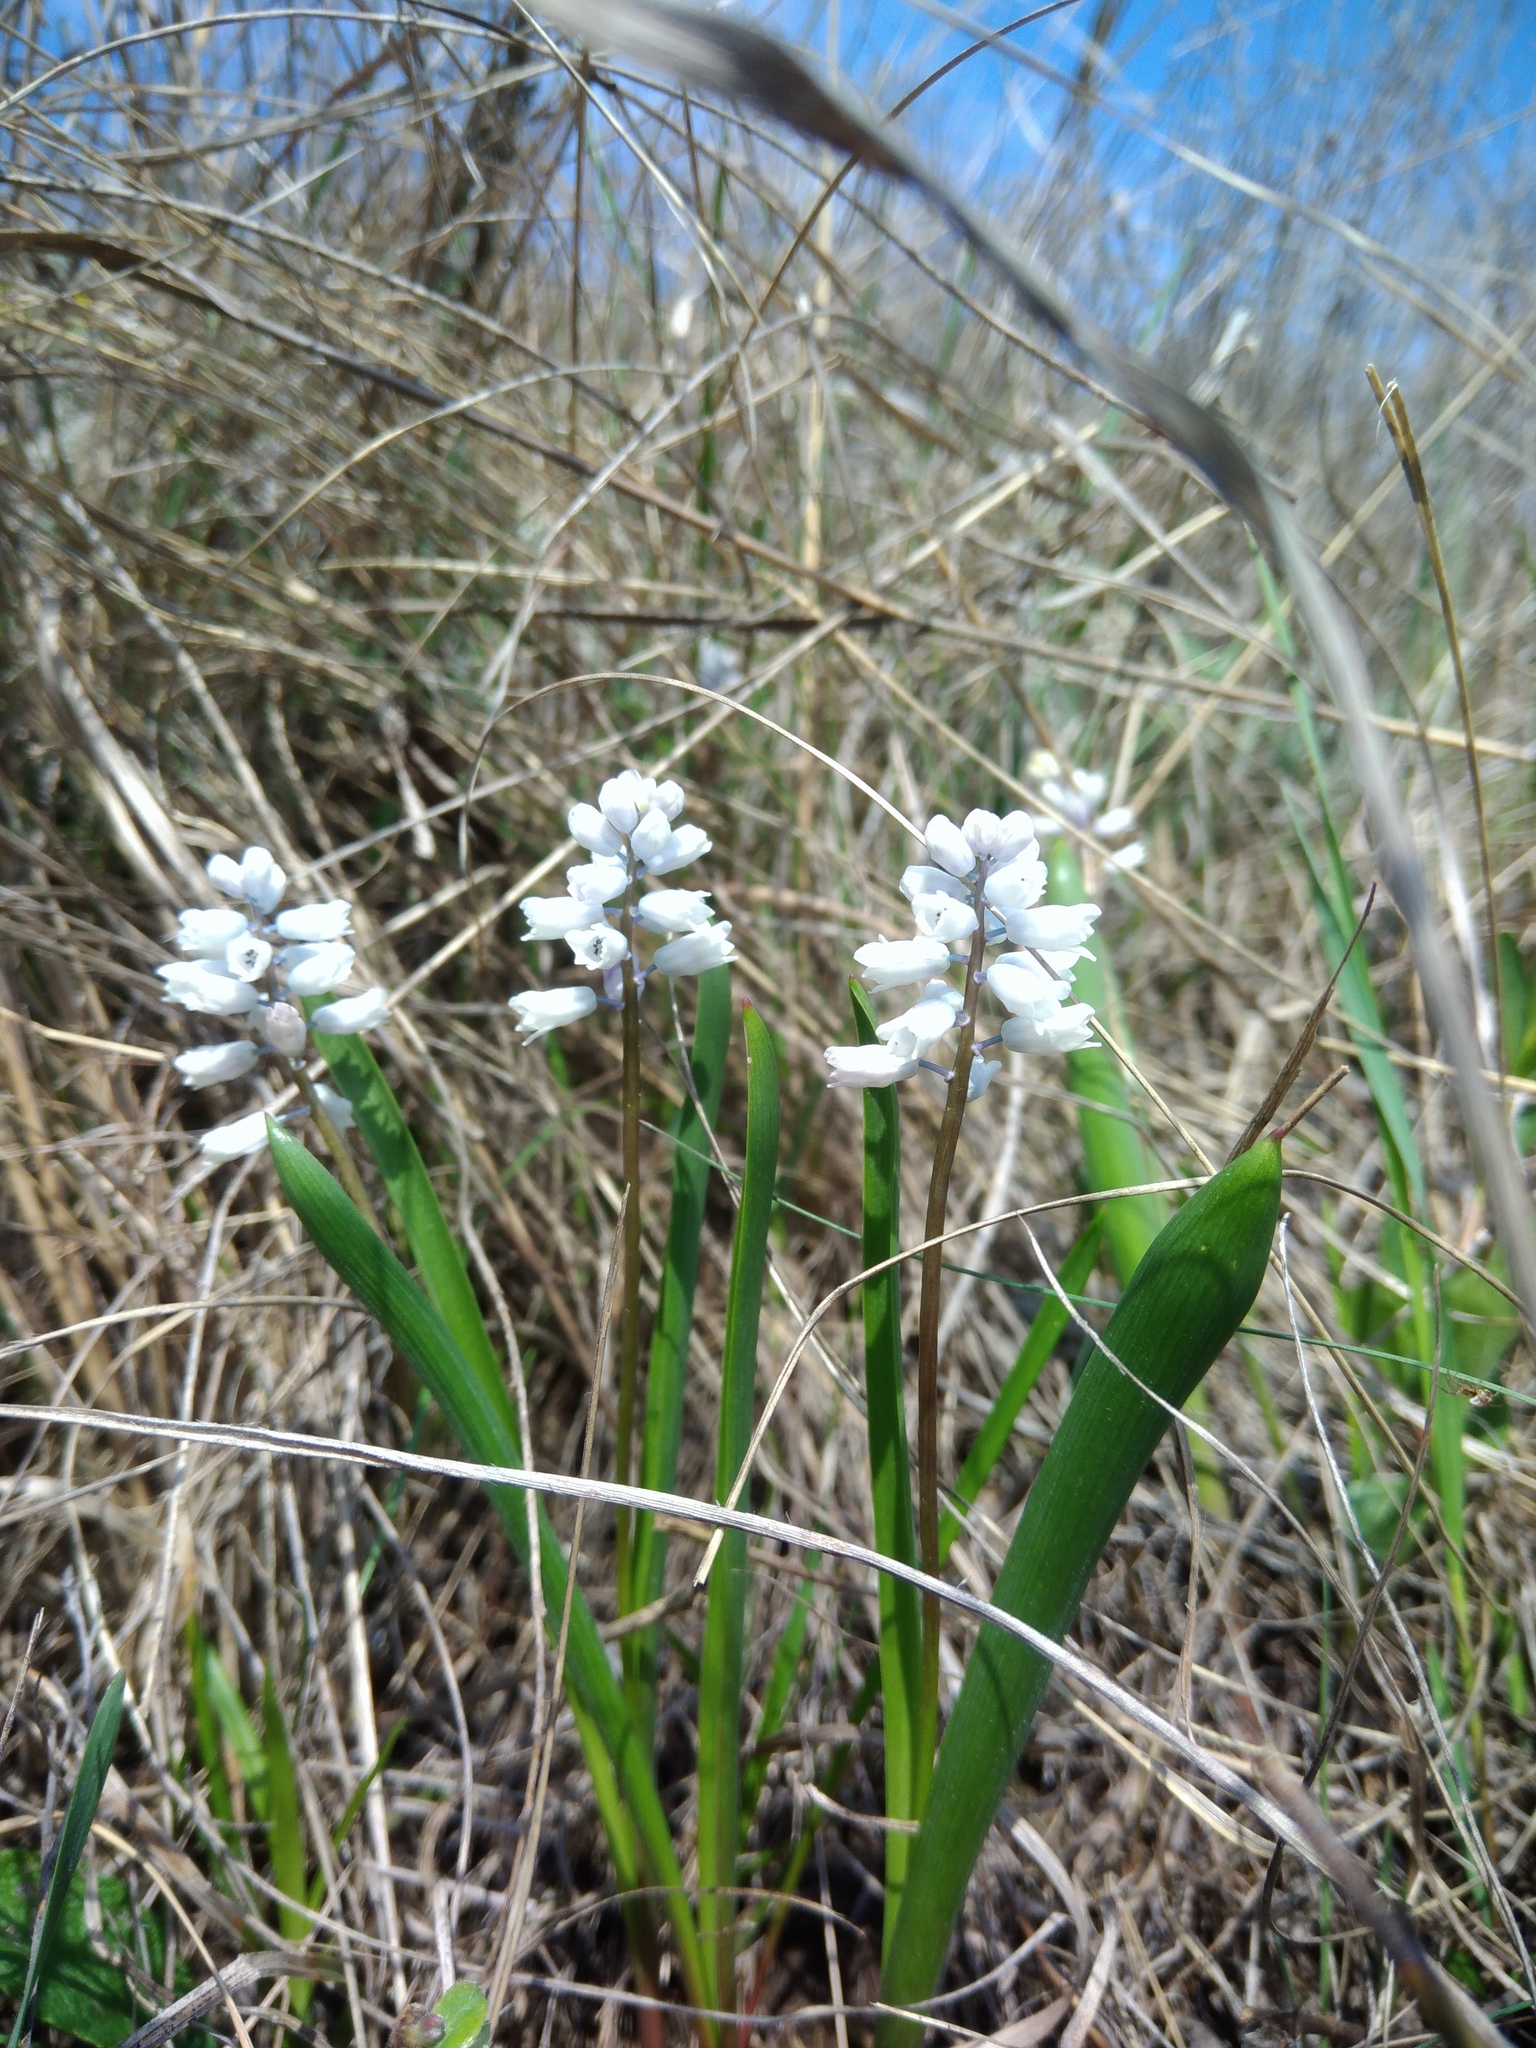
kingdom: Plantae
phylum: Tracheophyta
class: Liliopsida
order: Asparagales
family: Asparagaceae
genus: Hyacinthella
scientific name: Hyacinthella leucophaea
